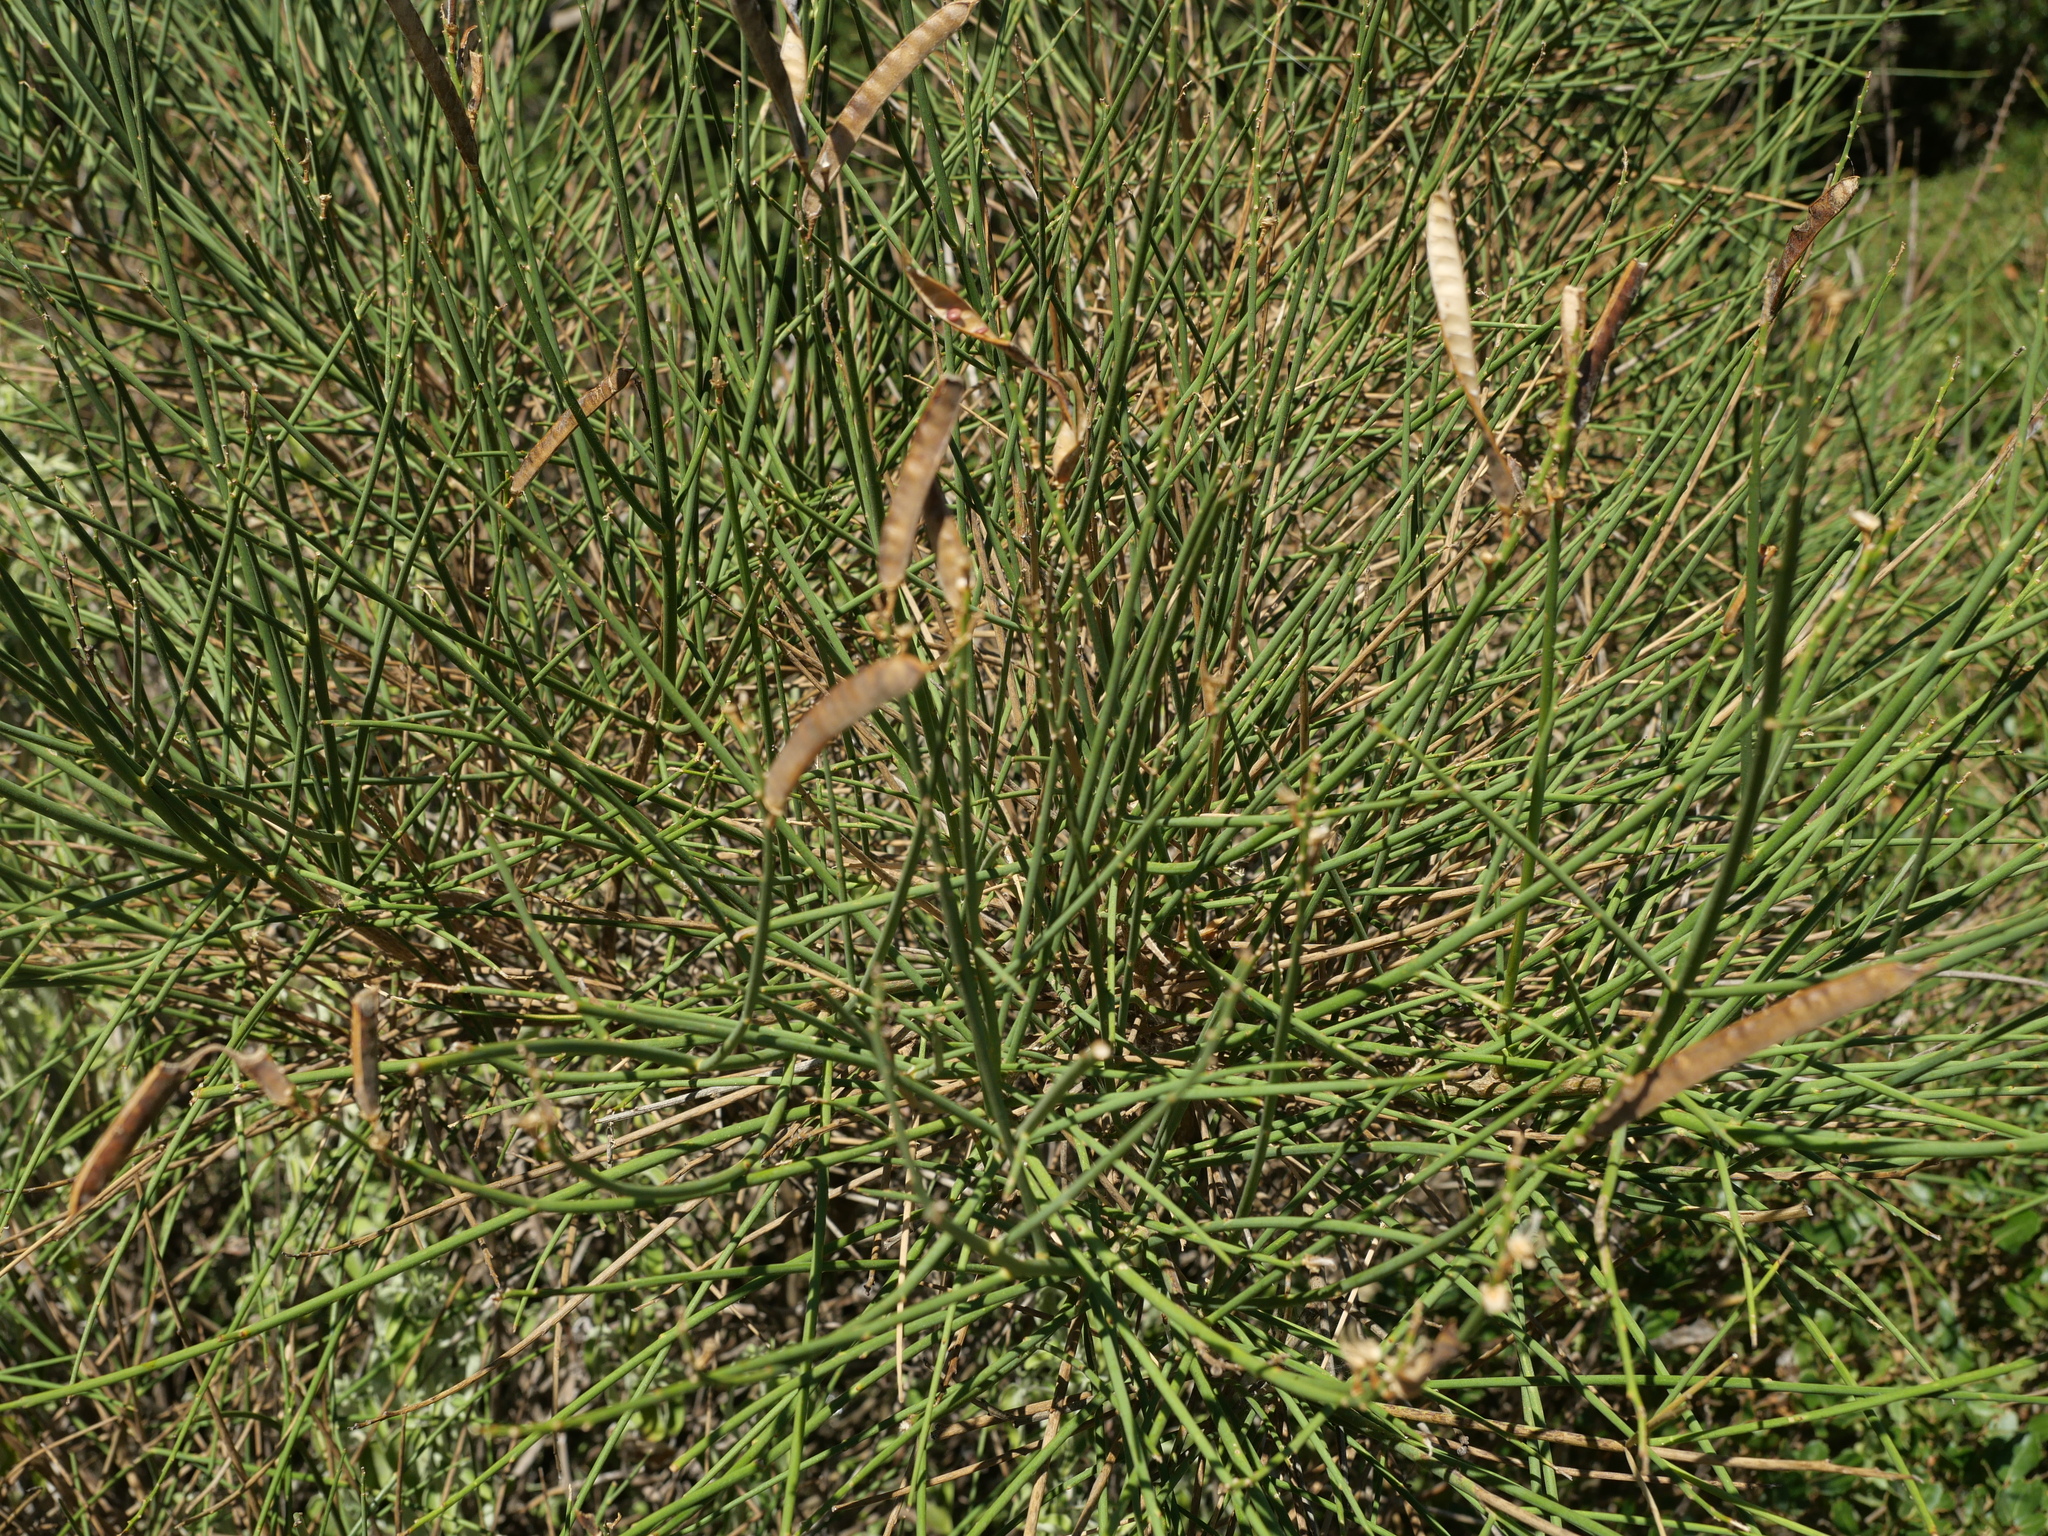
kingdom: Plantae
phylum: Tracheophyta
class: Magnoliopsida
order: Fabales
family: Fabaceae
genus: Spartium
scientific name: Spartium junceum
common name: Spanish broom
